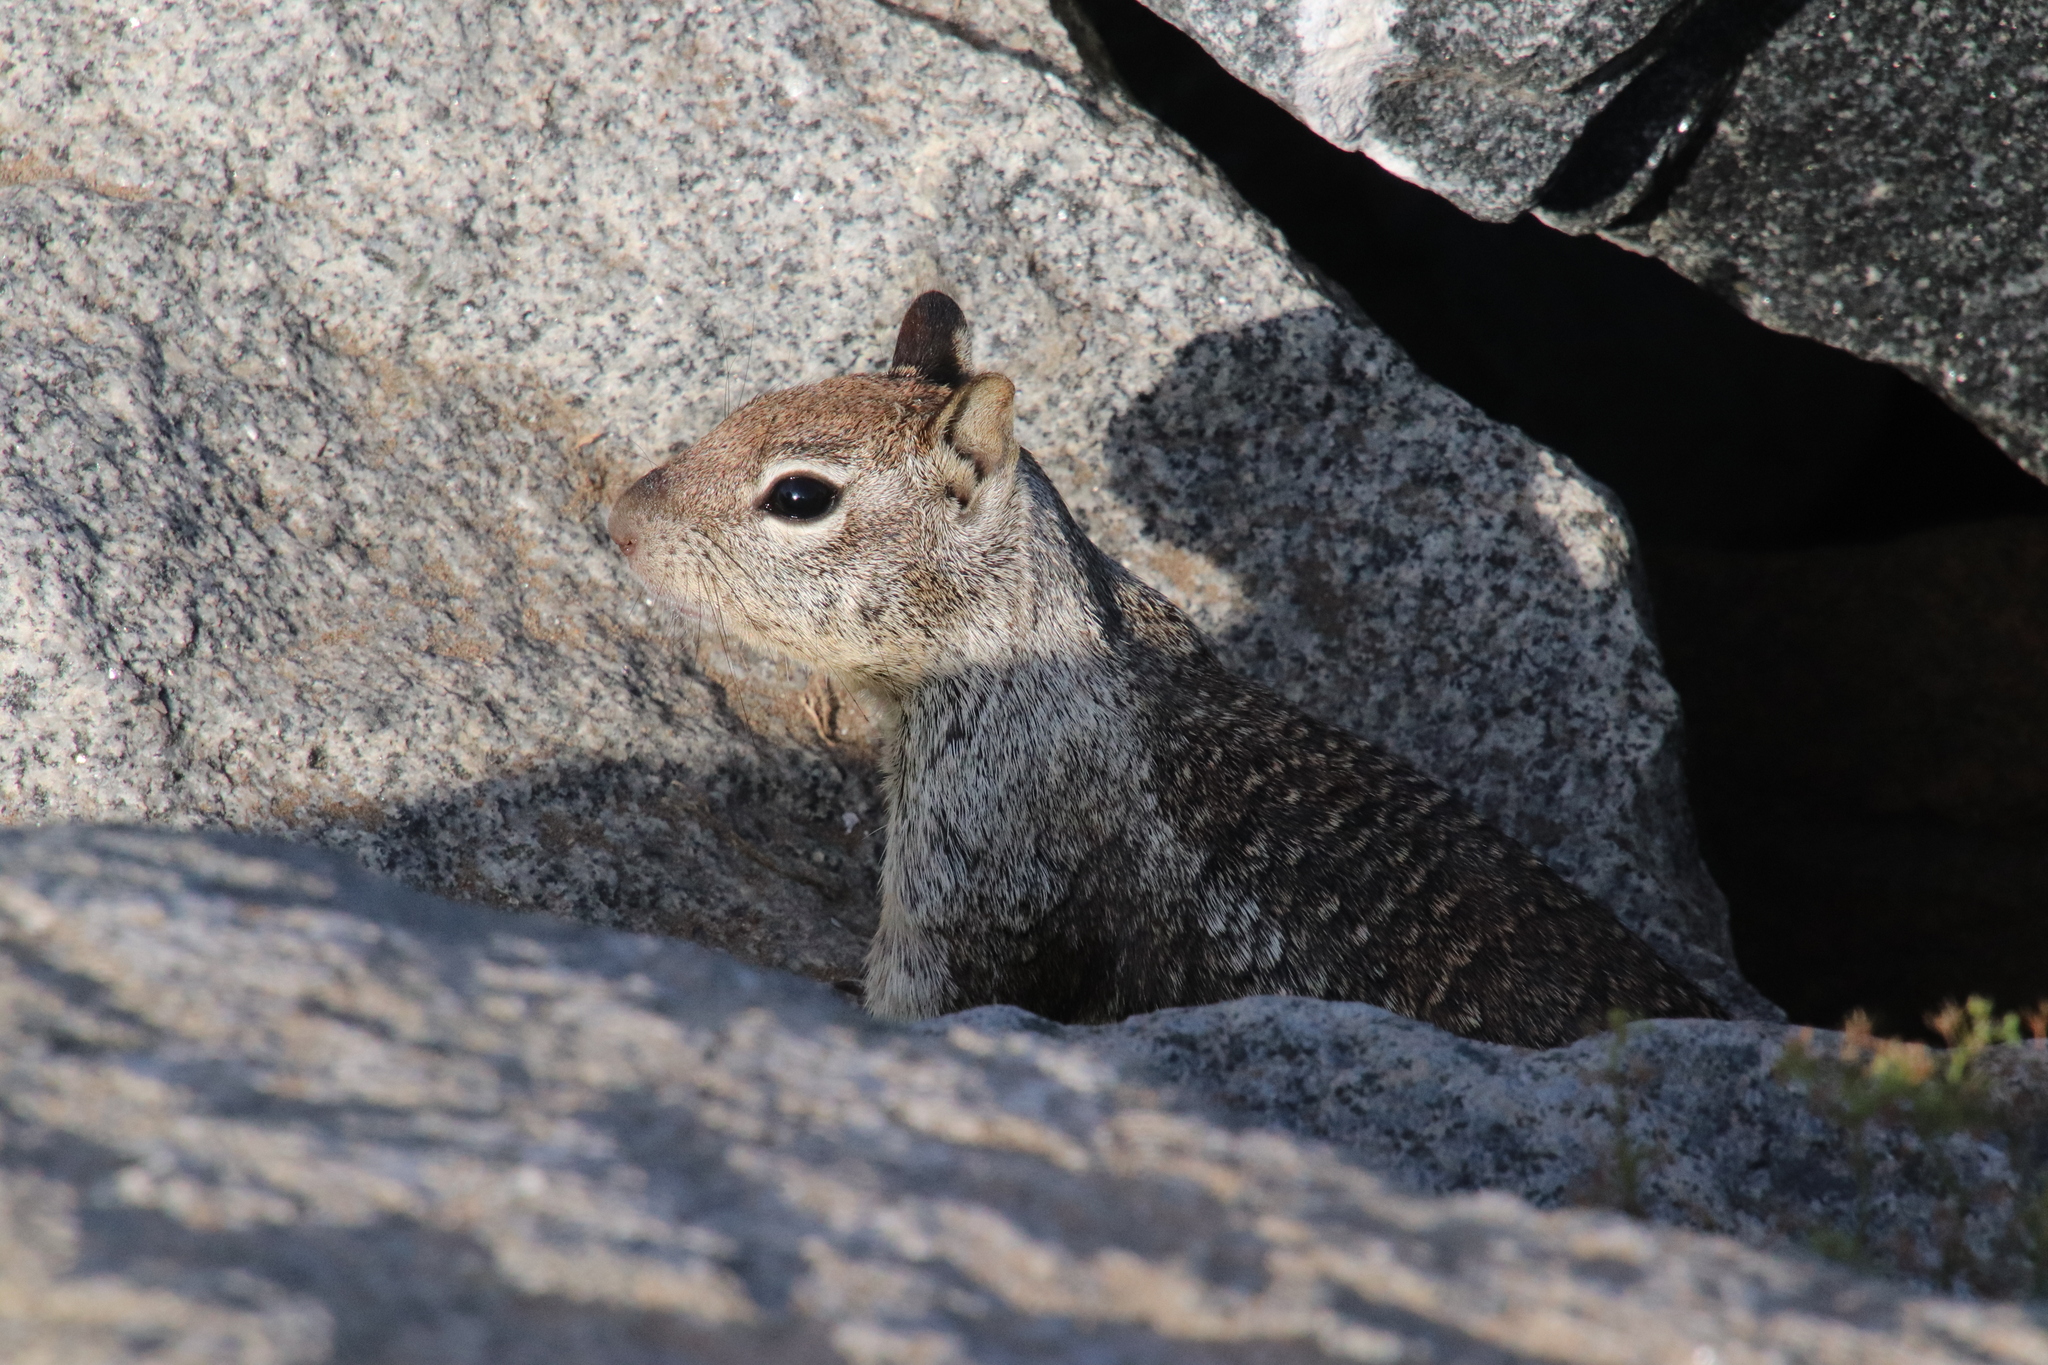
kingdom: Animalia
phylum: Chordata
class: Mammalia
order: Rodentia
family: Sciuridae
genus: Otospermophilus
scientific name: Otospermophilus beecheyi
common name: California ground squirrel
